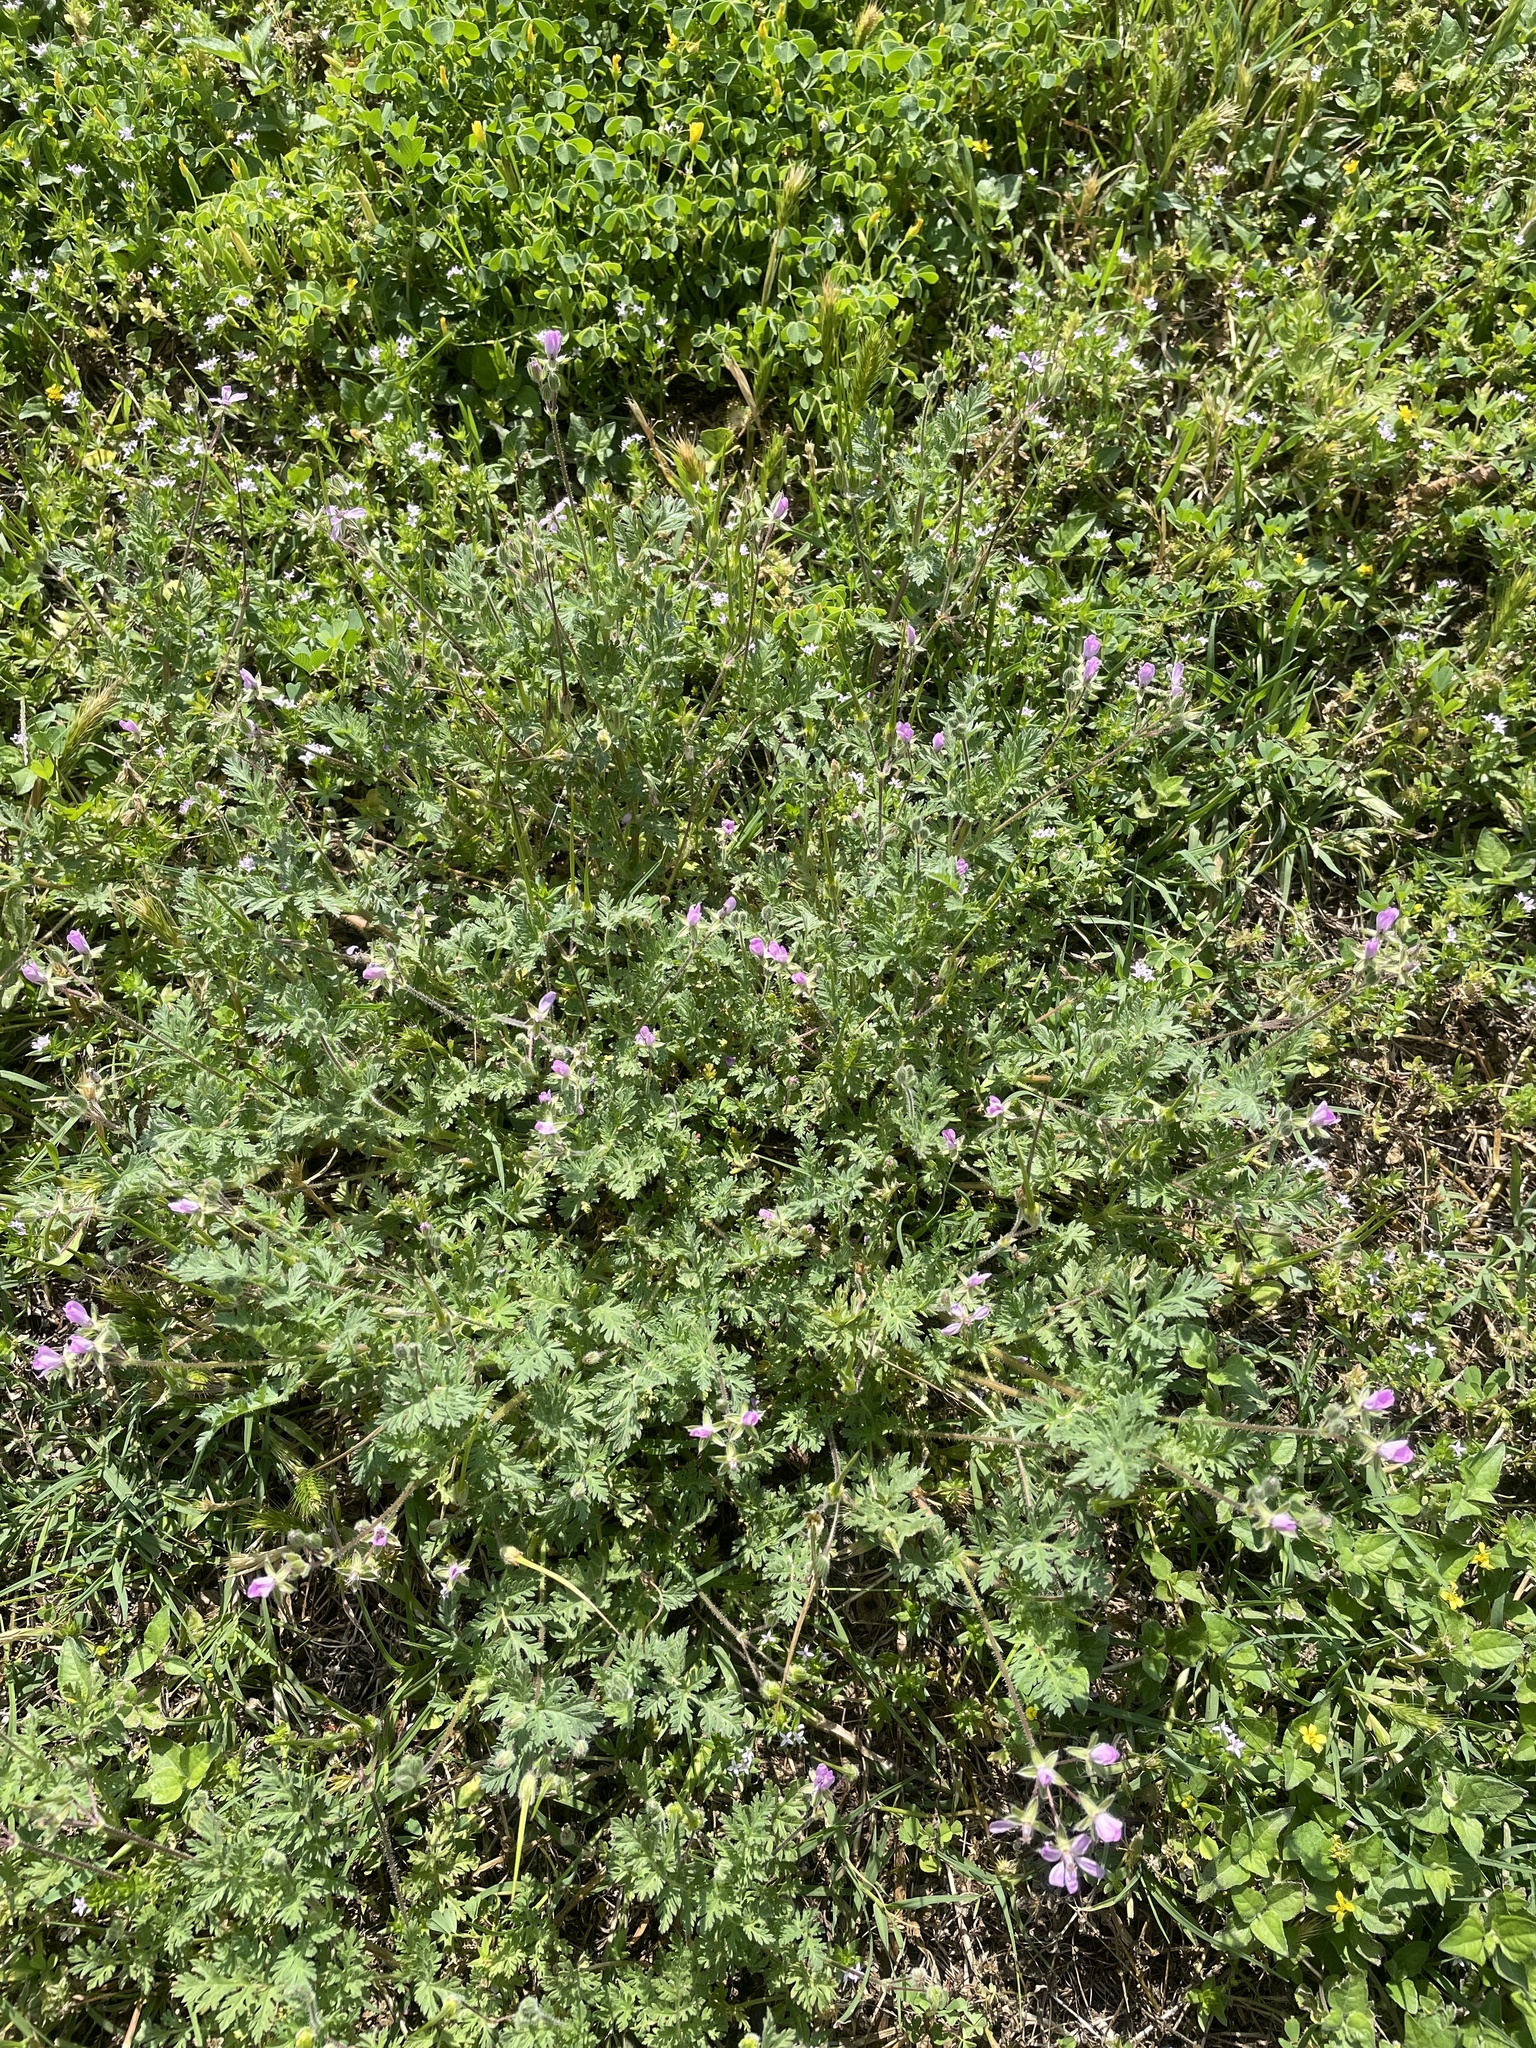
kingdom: Plantae
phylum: Tracheophyta
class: Magnoliopsida
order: Geraniales
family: Geraniaceae
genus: Erodium
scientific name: Erodium cicutarium
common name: Common stork's-bill
